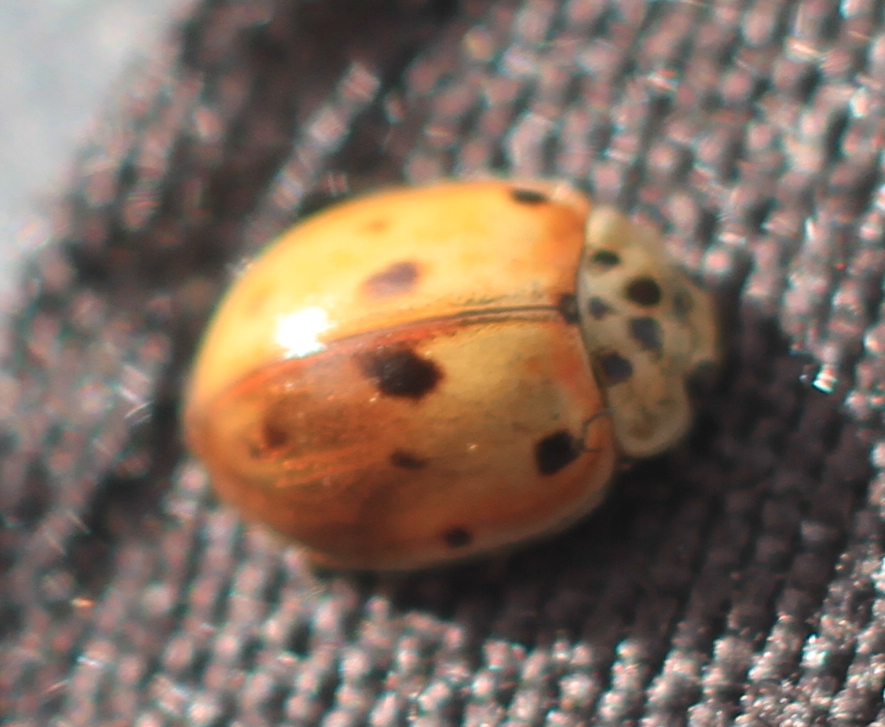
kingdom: Animalia
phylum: Arthropoda
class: Insecta
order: Coleoptera
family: Coccinellidae
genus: Adalia
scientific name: Adalia decempunctata
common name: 10-spot ladybird
